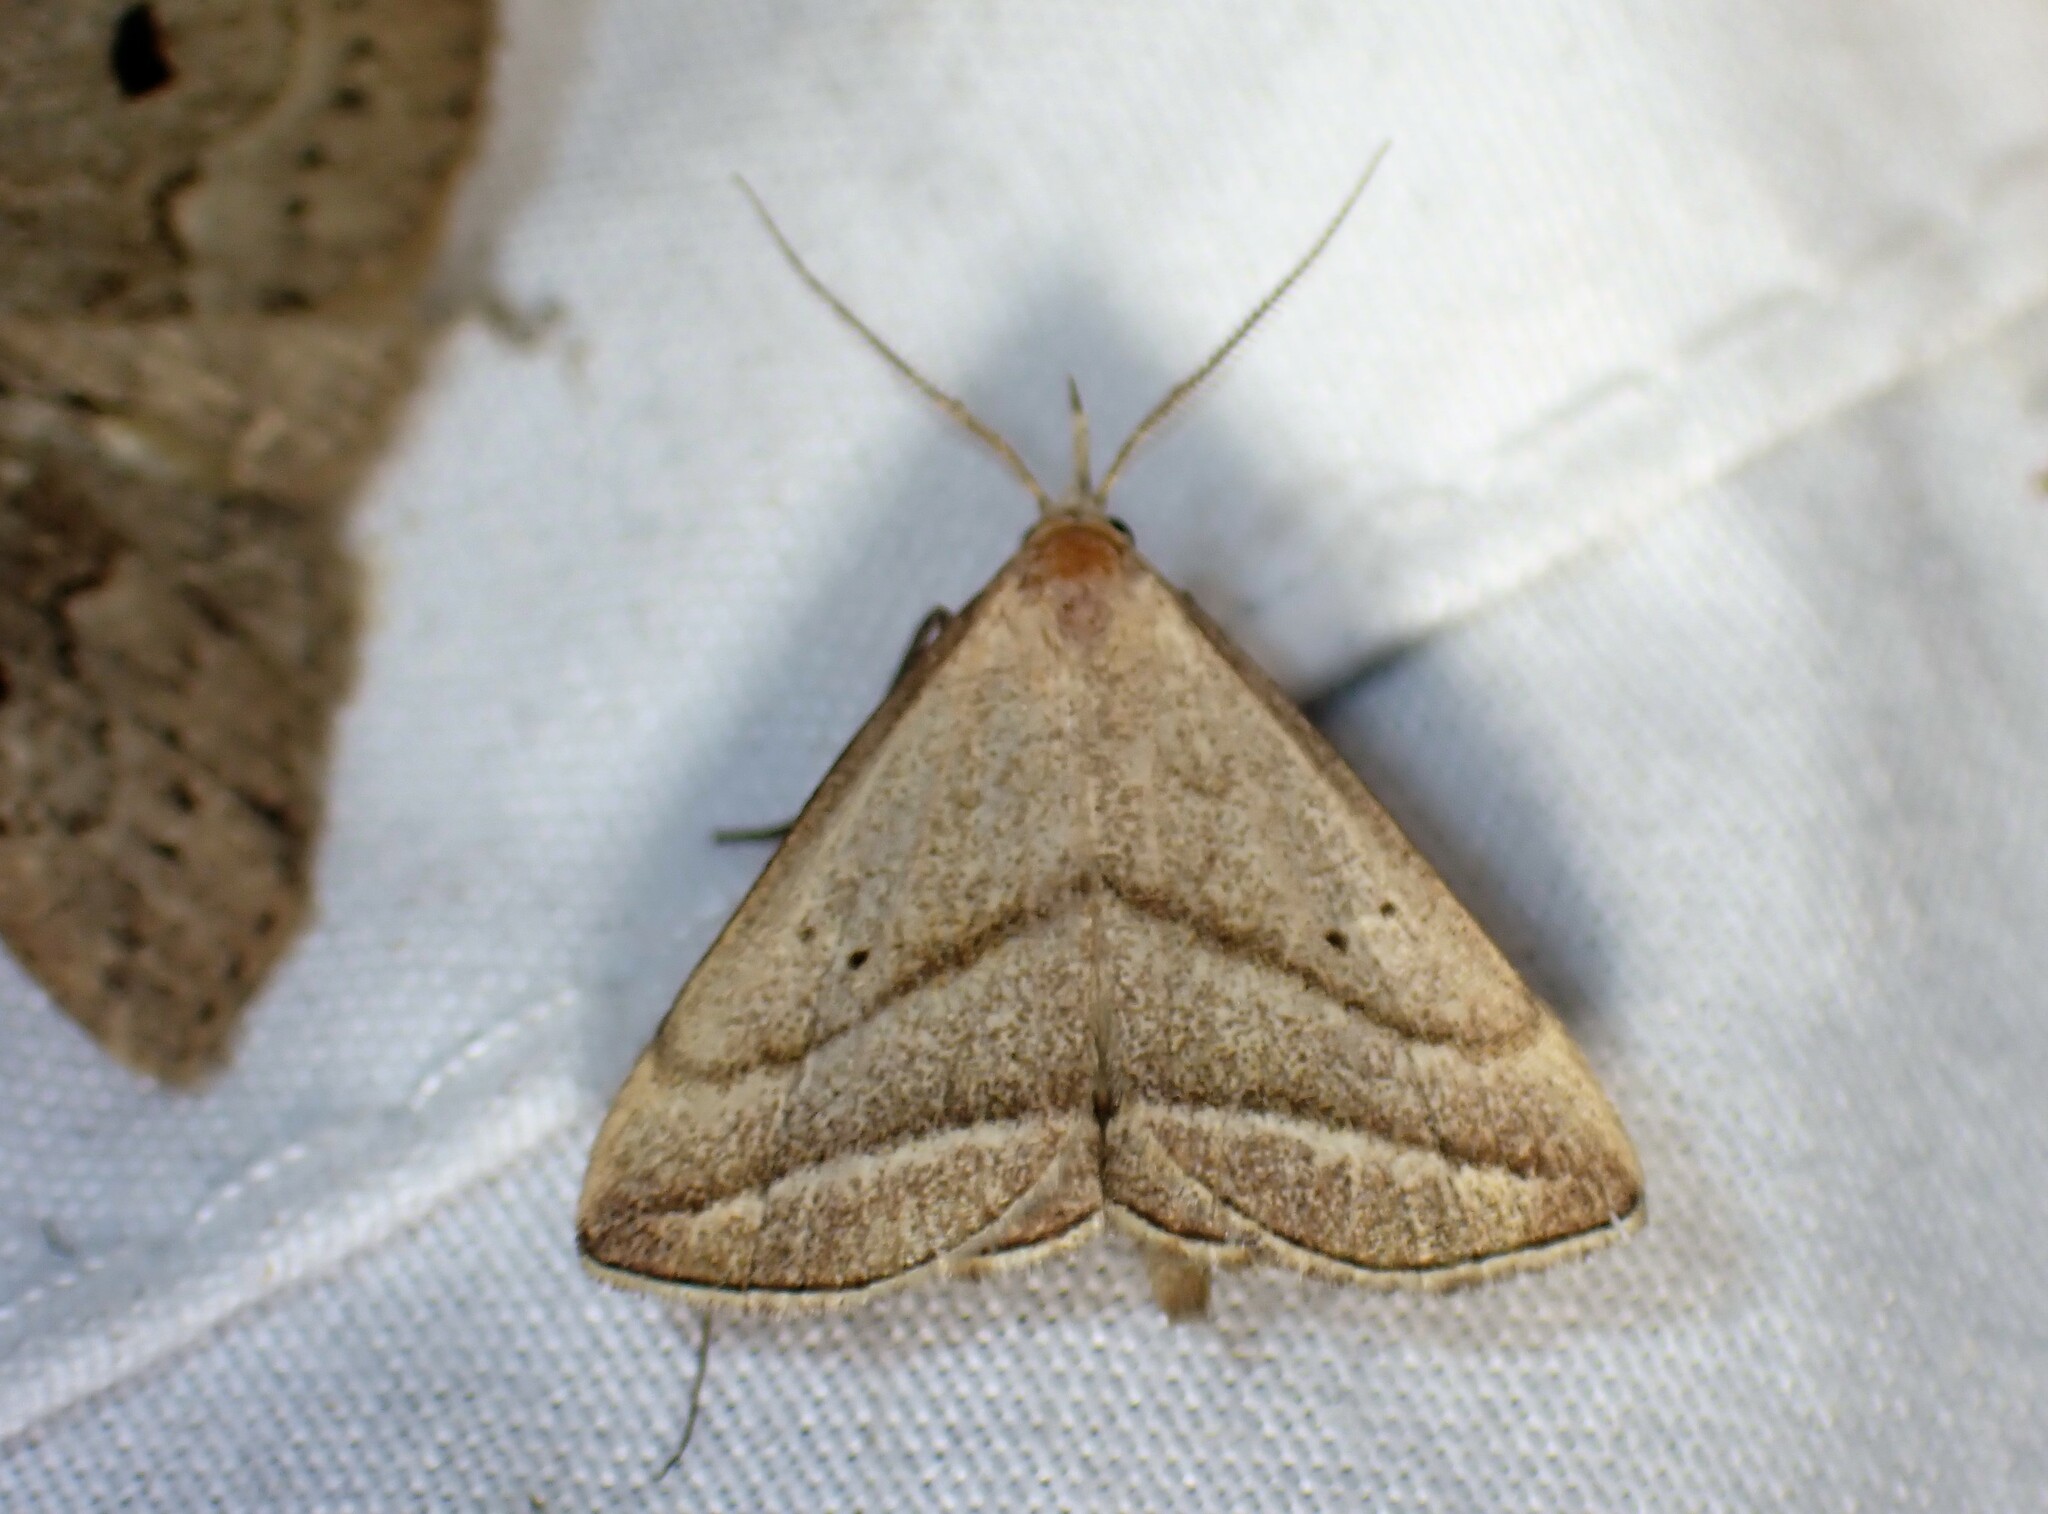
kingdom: Animalia
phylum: Arthropoda
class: Insecta
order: Lepidoptera
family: Erebidae
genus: Macrochilo
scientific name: Macrochilo absorptalis
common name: Slant-lined owlet
